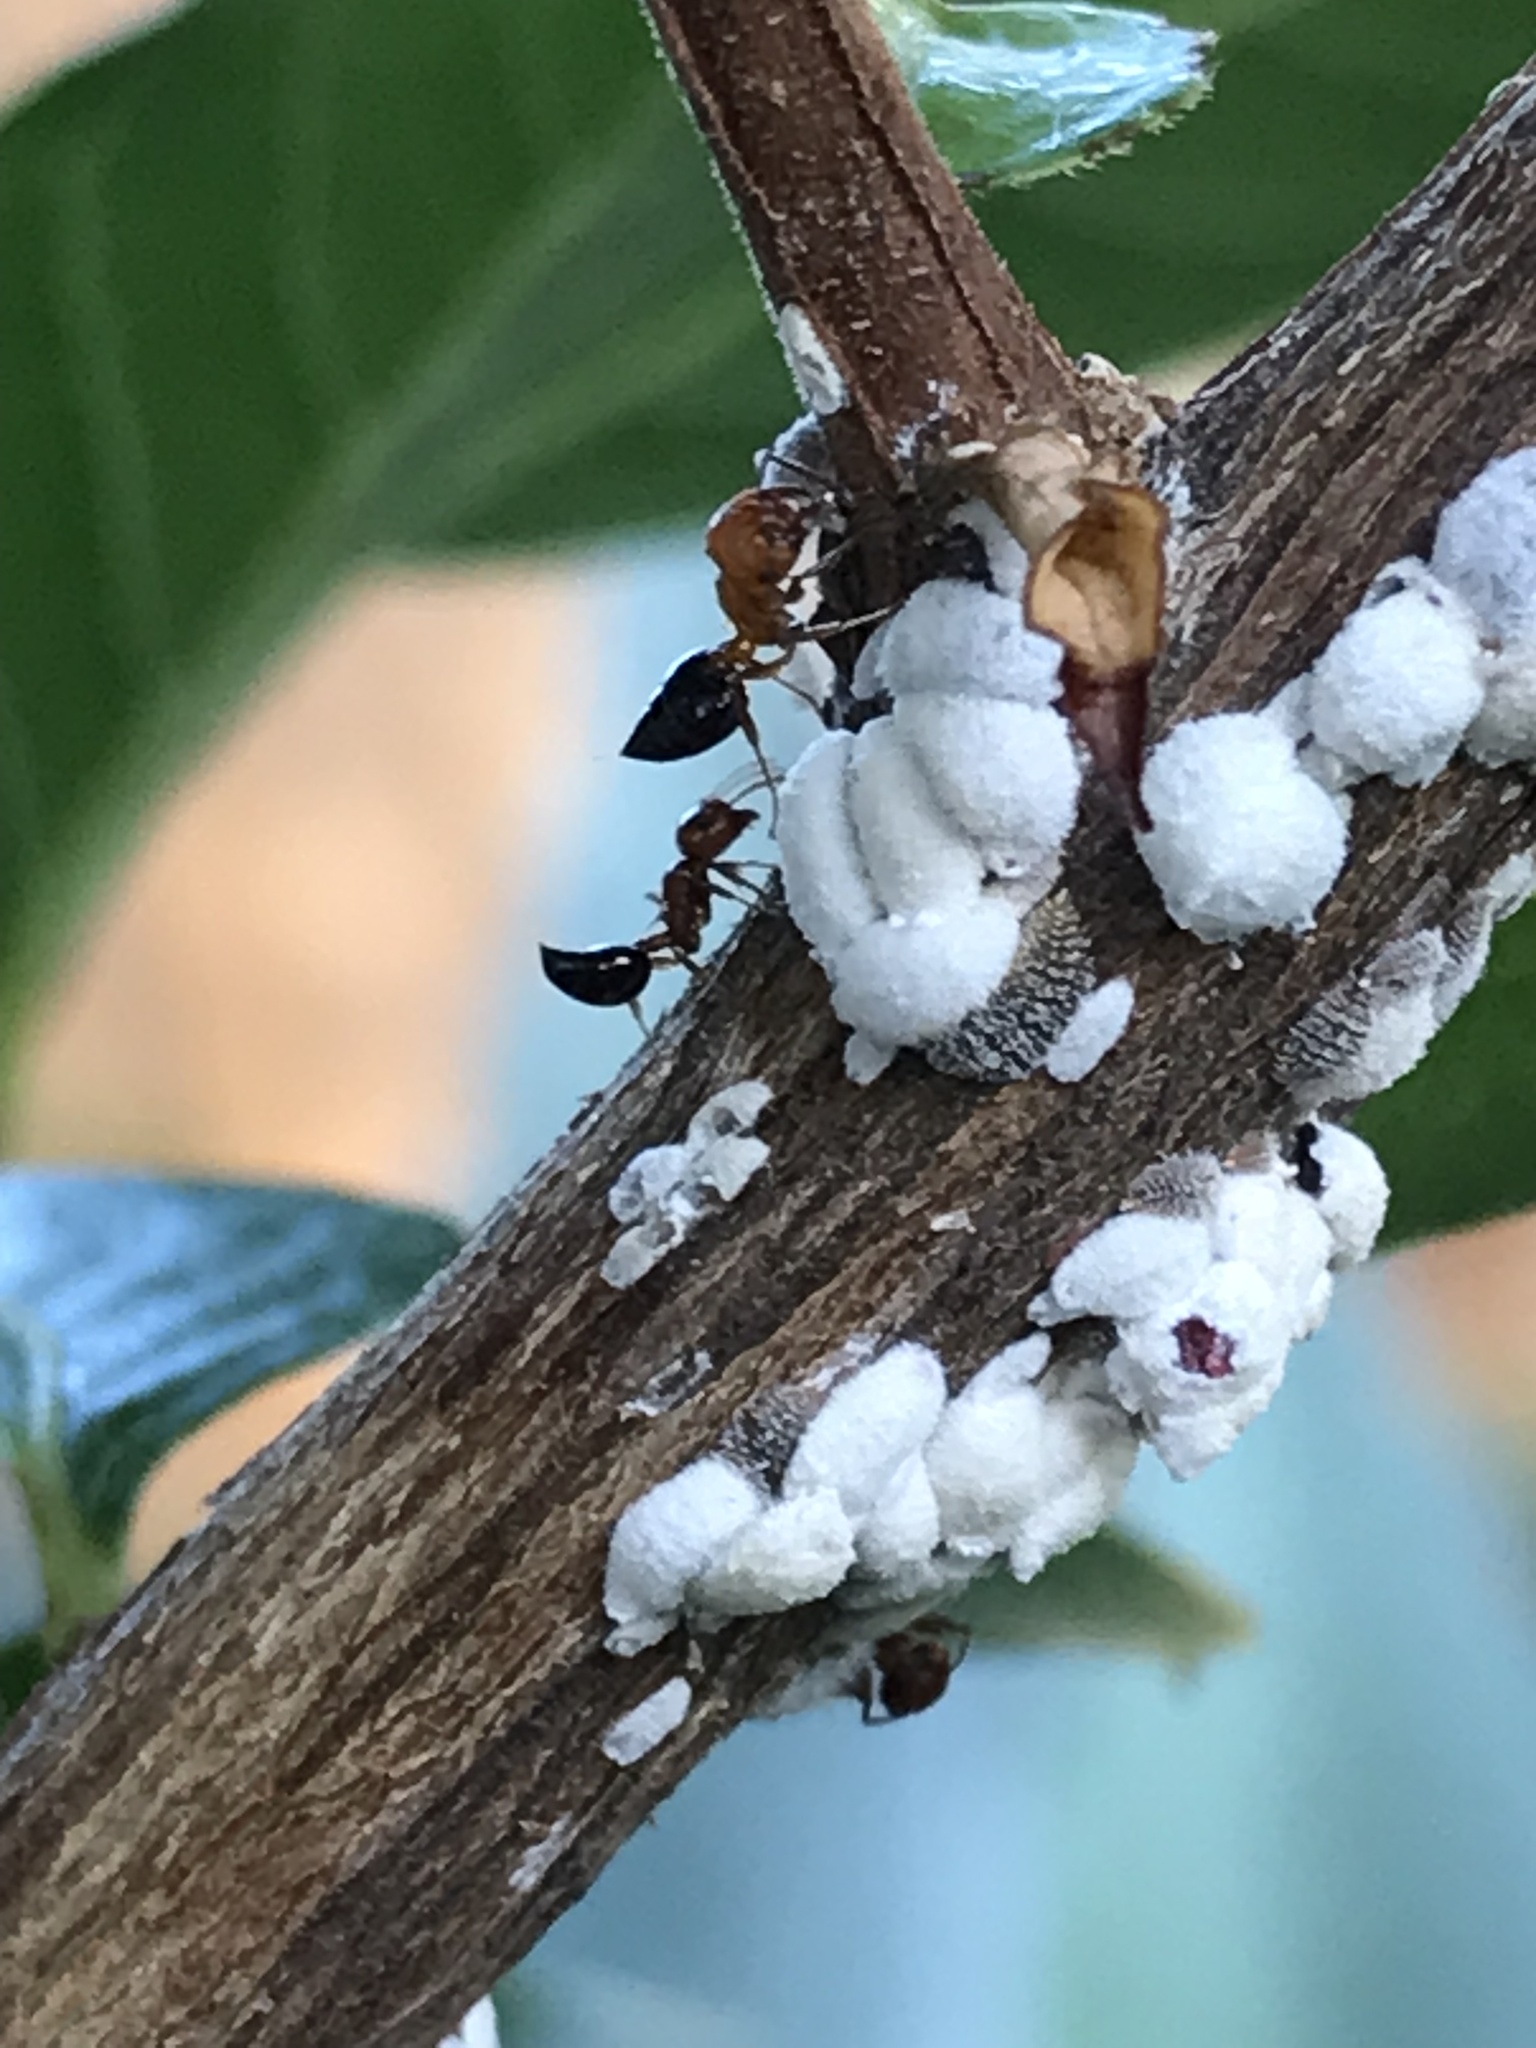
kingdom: Animalia
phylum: Arthropoda
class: Insecta
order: Hymenoptera
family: Formicidae
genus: Crematogaster
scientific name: Crematogaster laeviuscula
